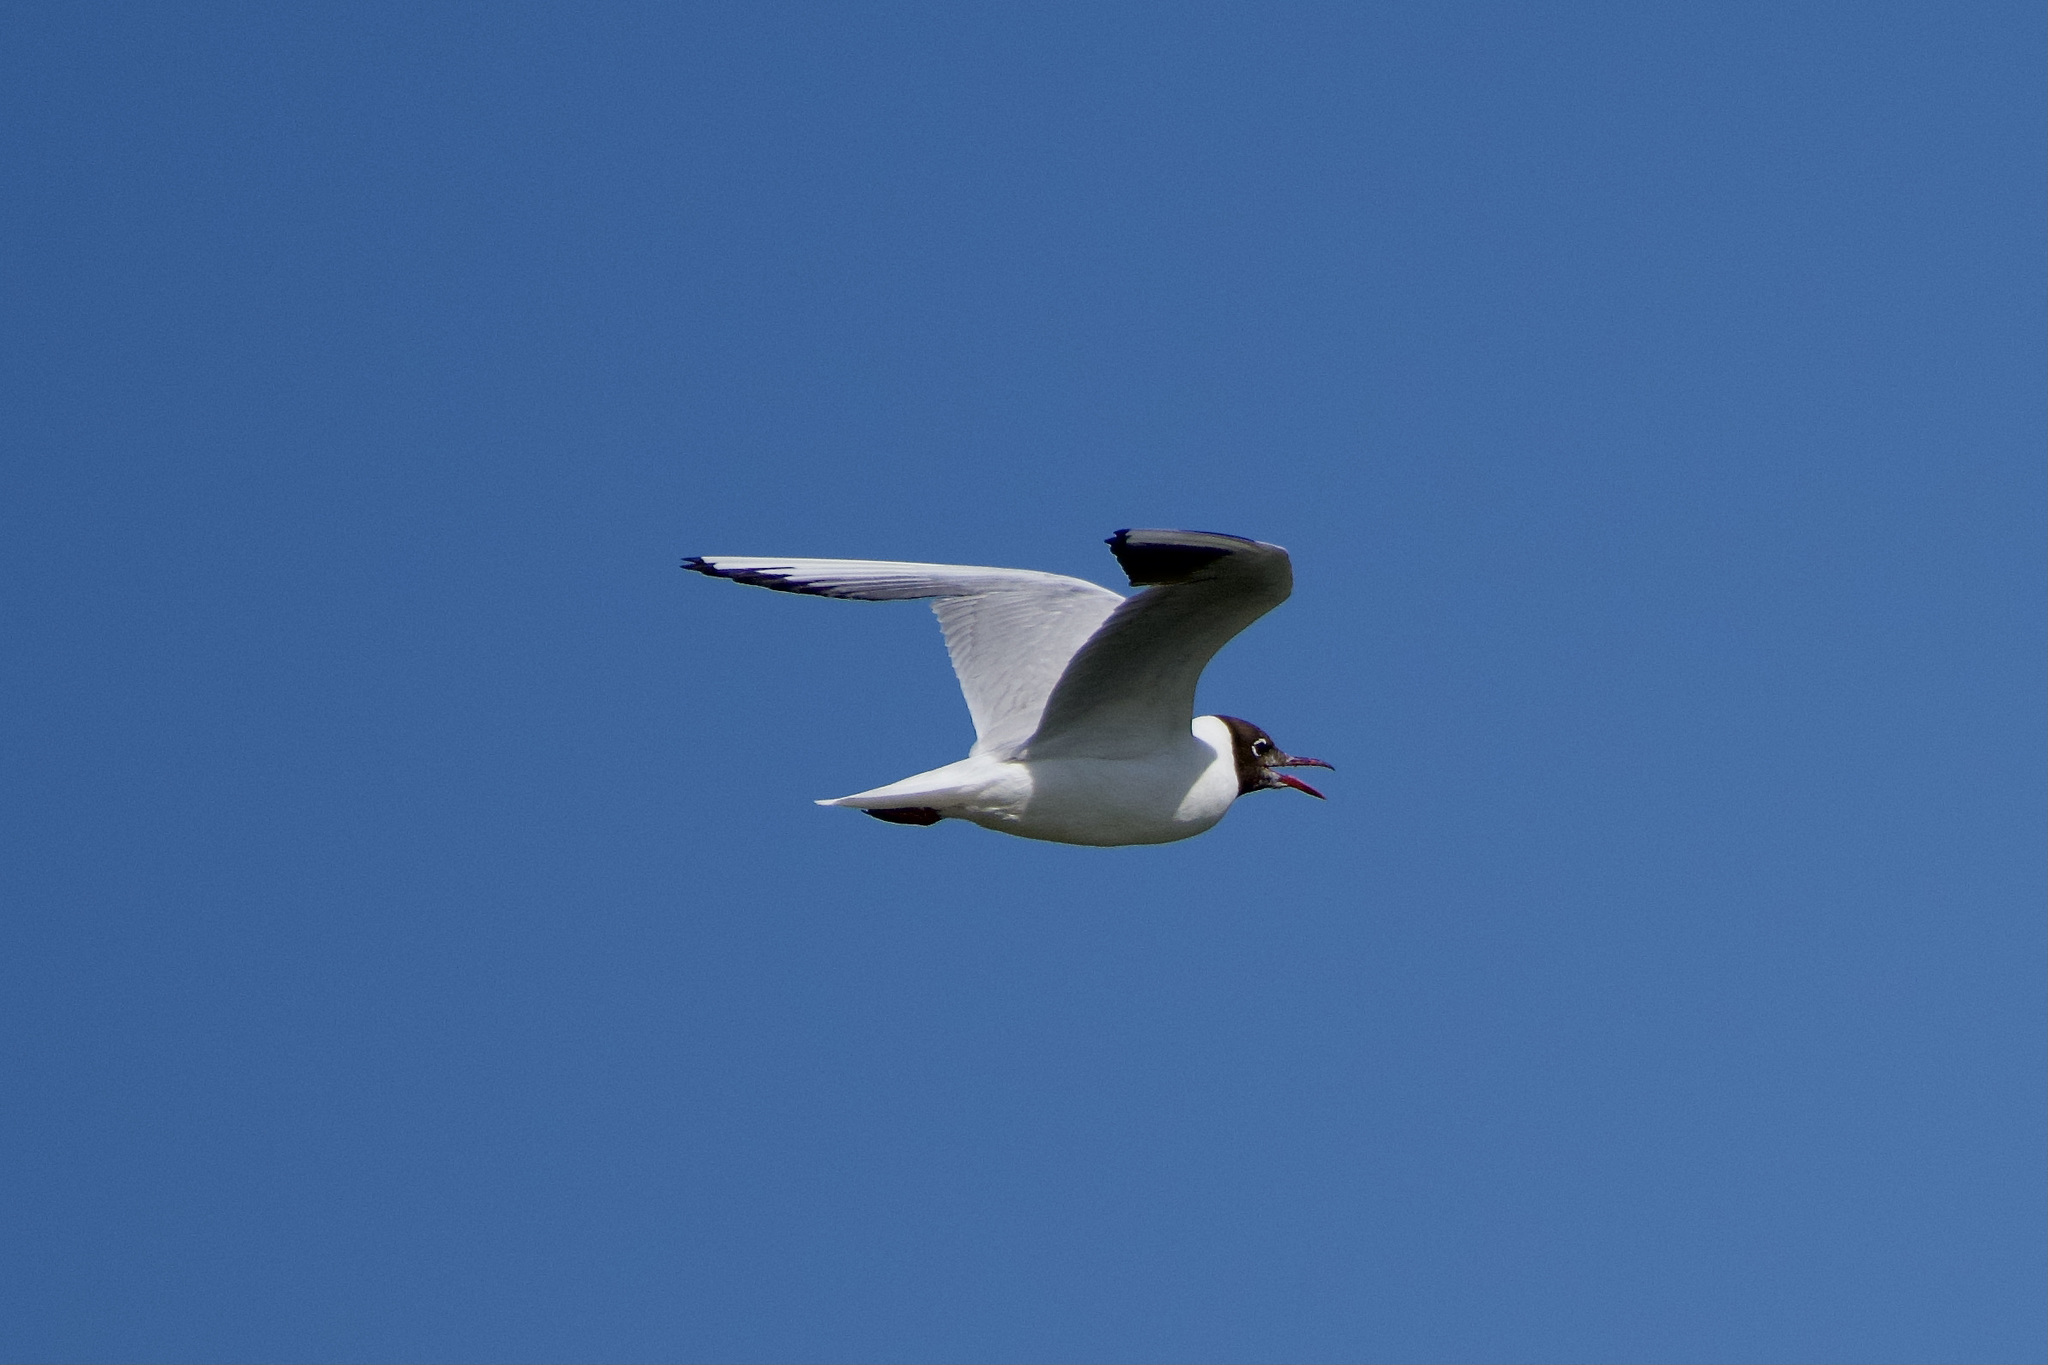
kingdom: Animalia
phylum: Chordata
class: Aves
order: Charadriiformes
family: Laridae
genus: Chroicocephalus
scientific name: Chroicocephalus ridibundus
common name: Black-headed gull
